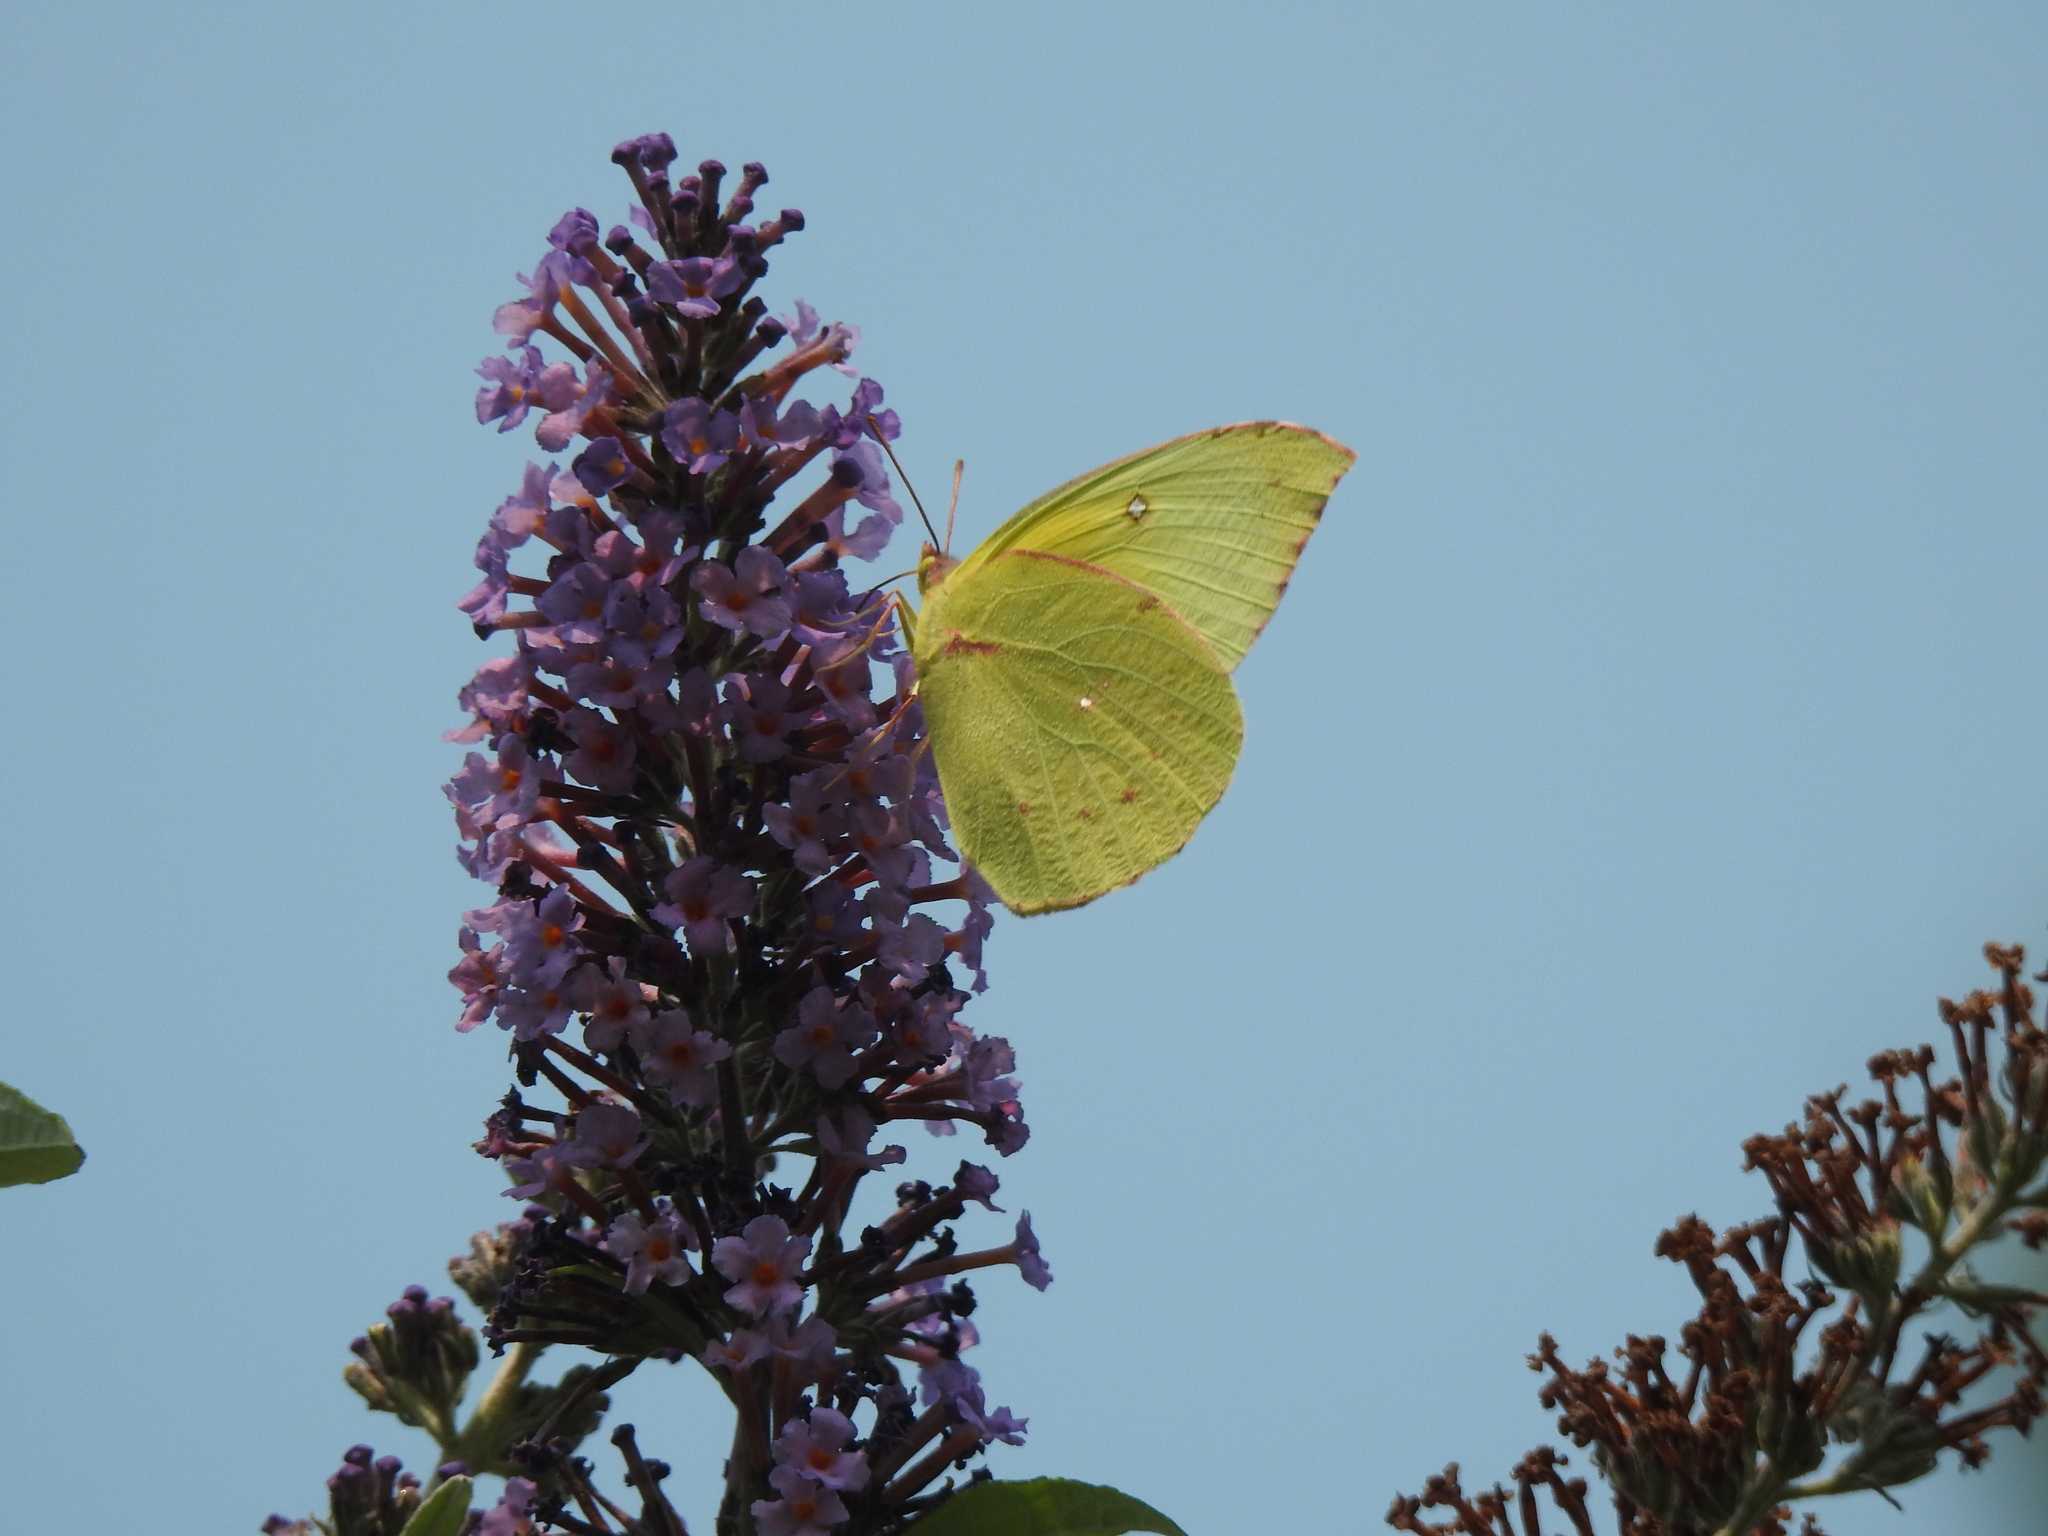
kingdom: Animalia
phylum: Arthropoda
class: Insecta
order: Lepidoptera
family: Pieridae
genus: Zerene
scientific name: Zerene eurydice
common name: California dogface
